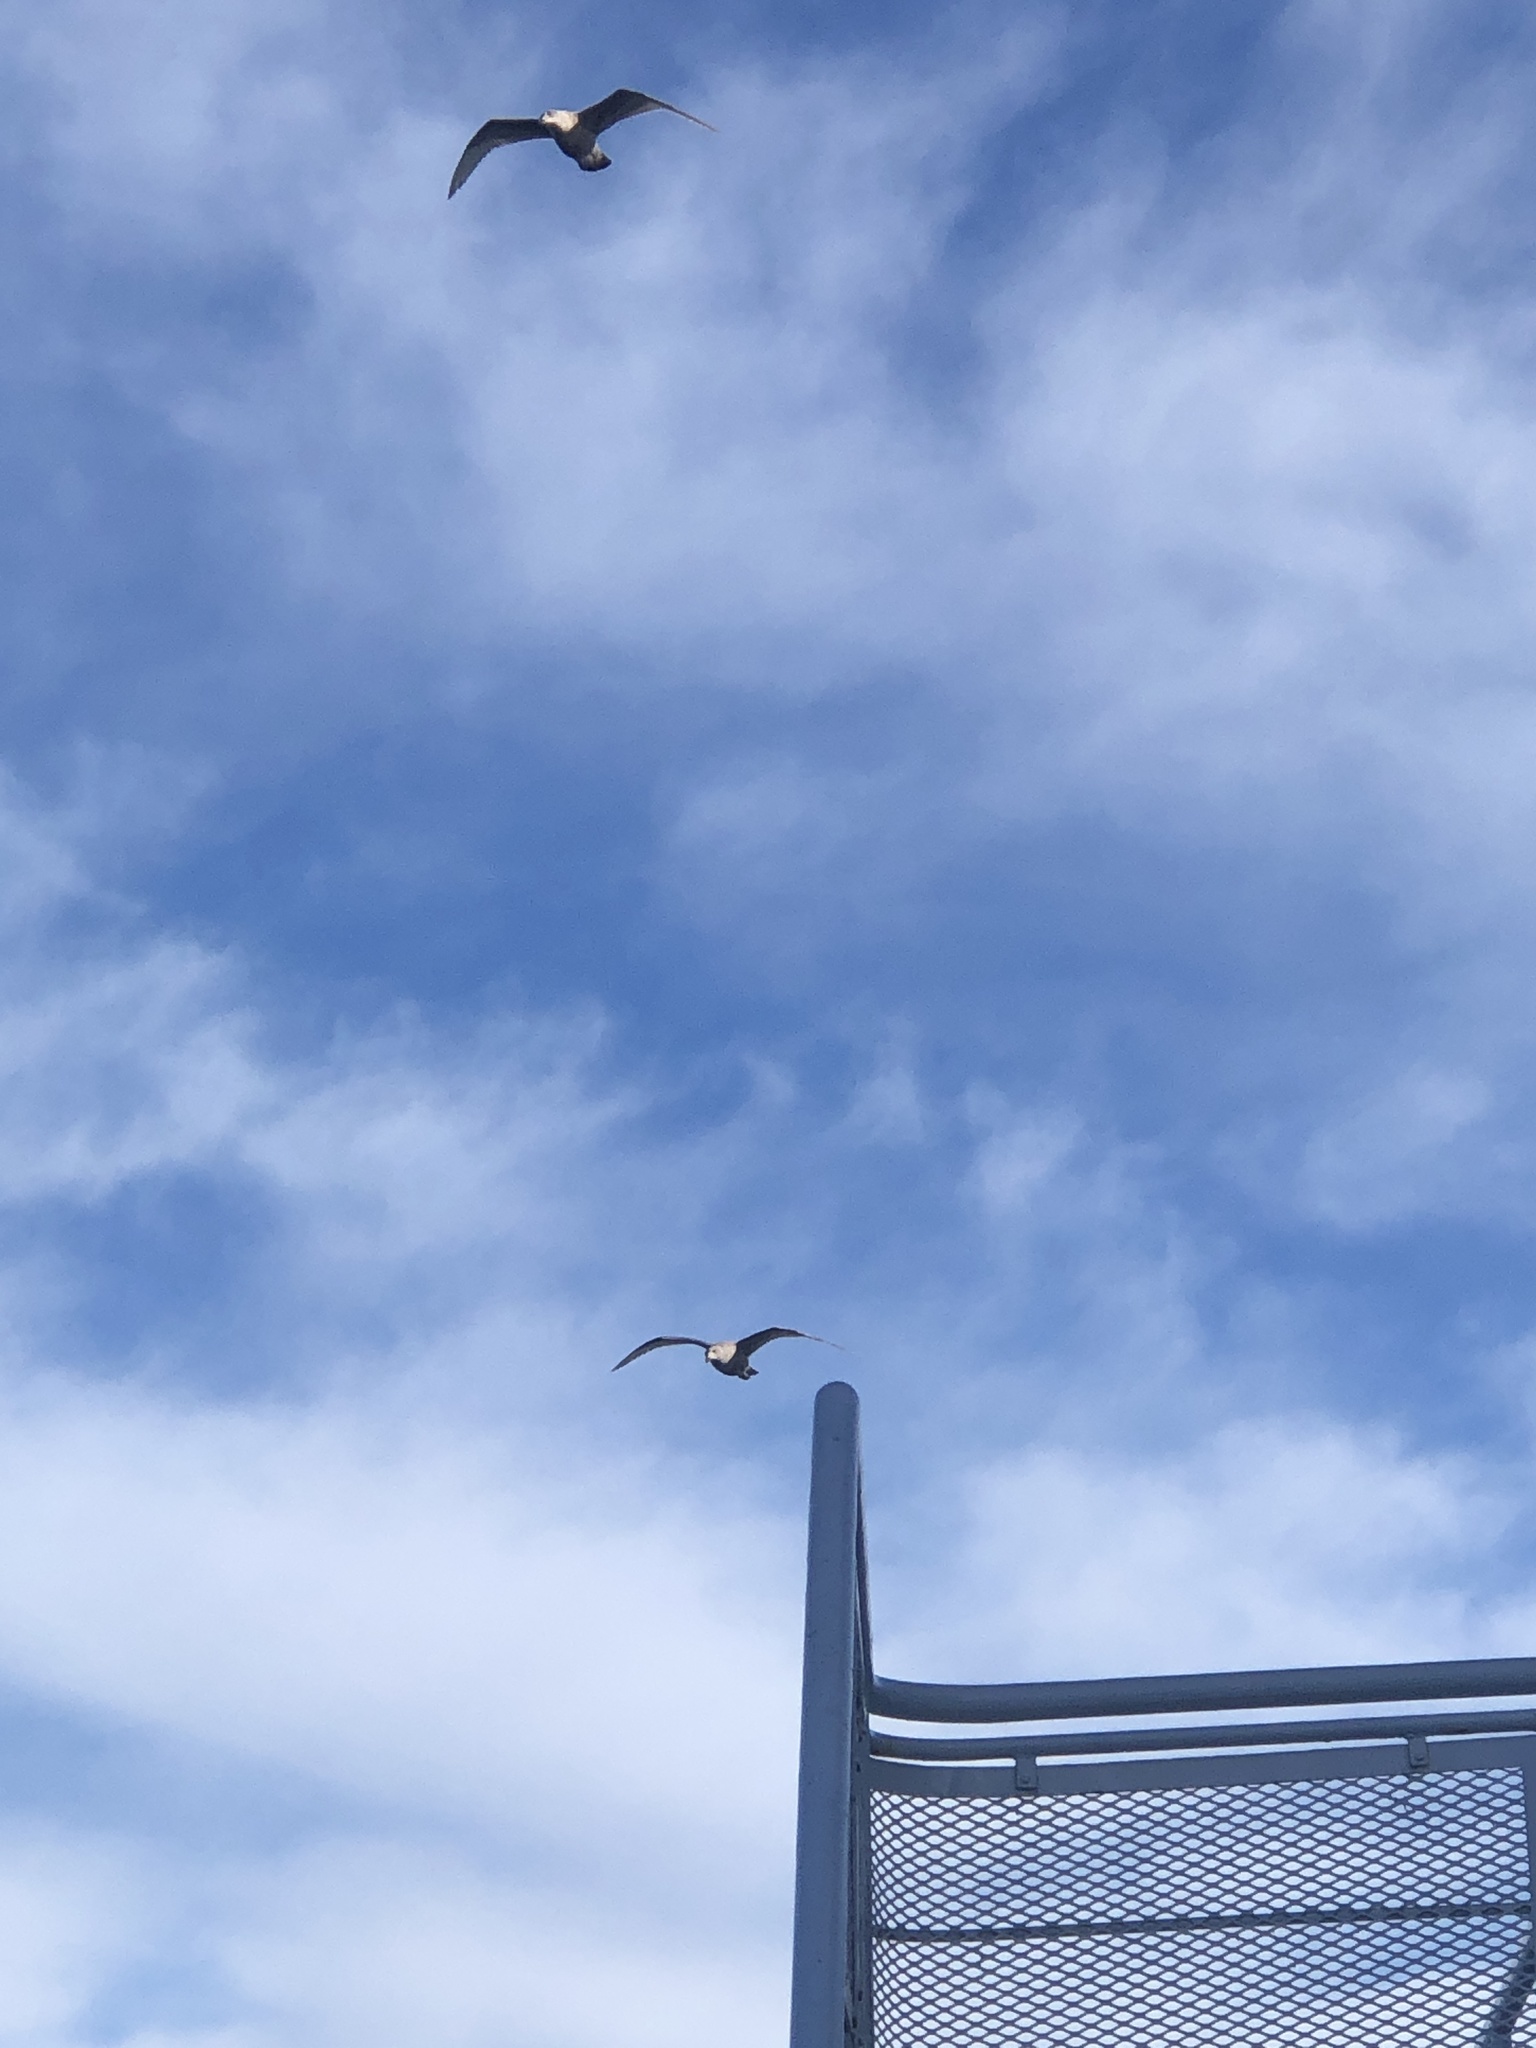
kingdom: Animalia
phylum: Chordata
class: Aves
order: Charadriiformes
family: Laridae
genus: Larus
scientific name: Larus
